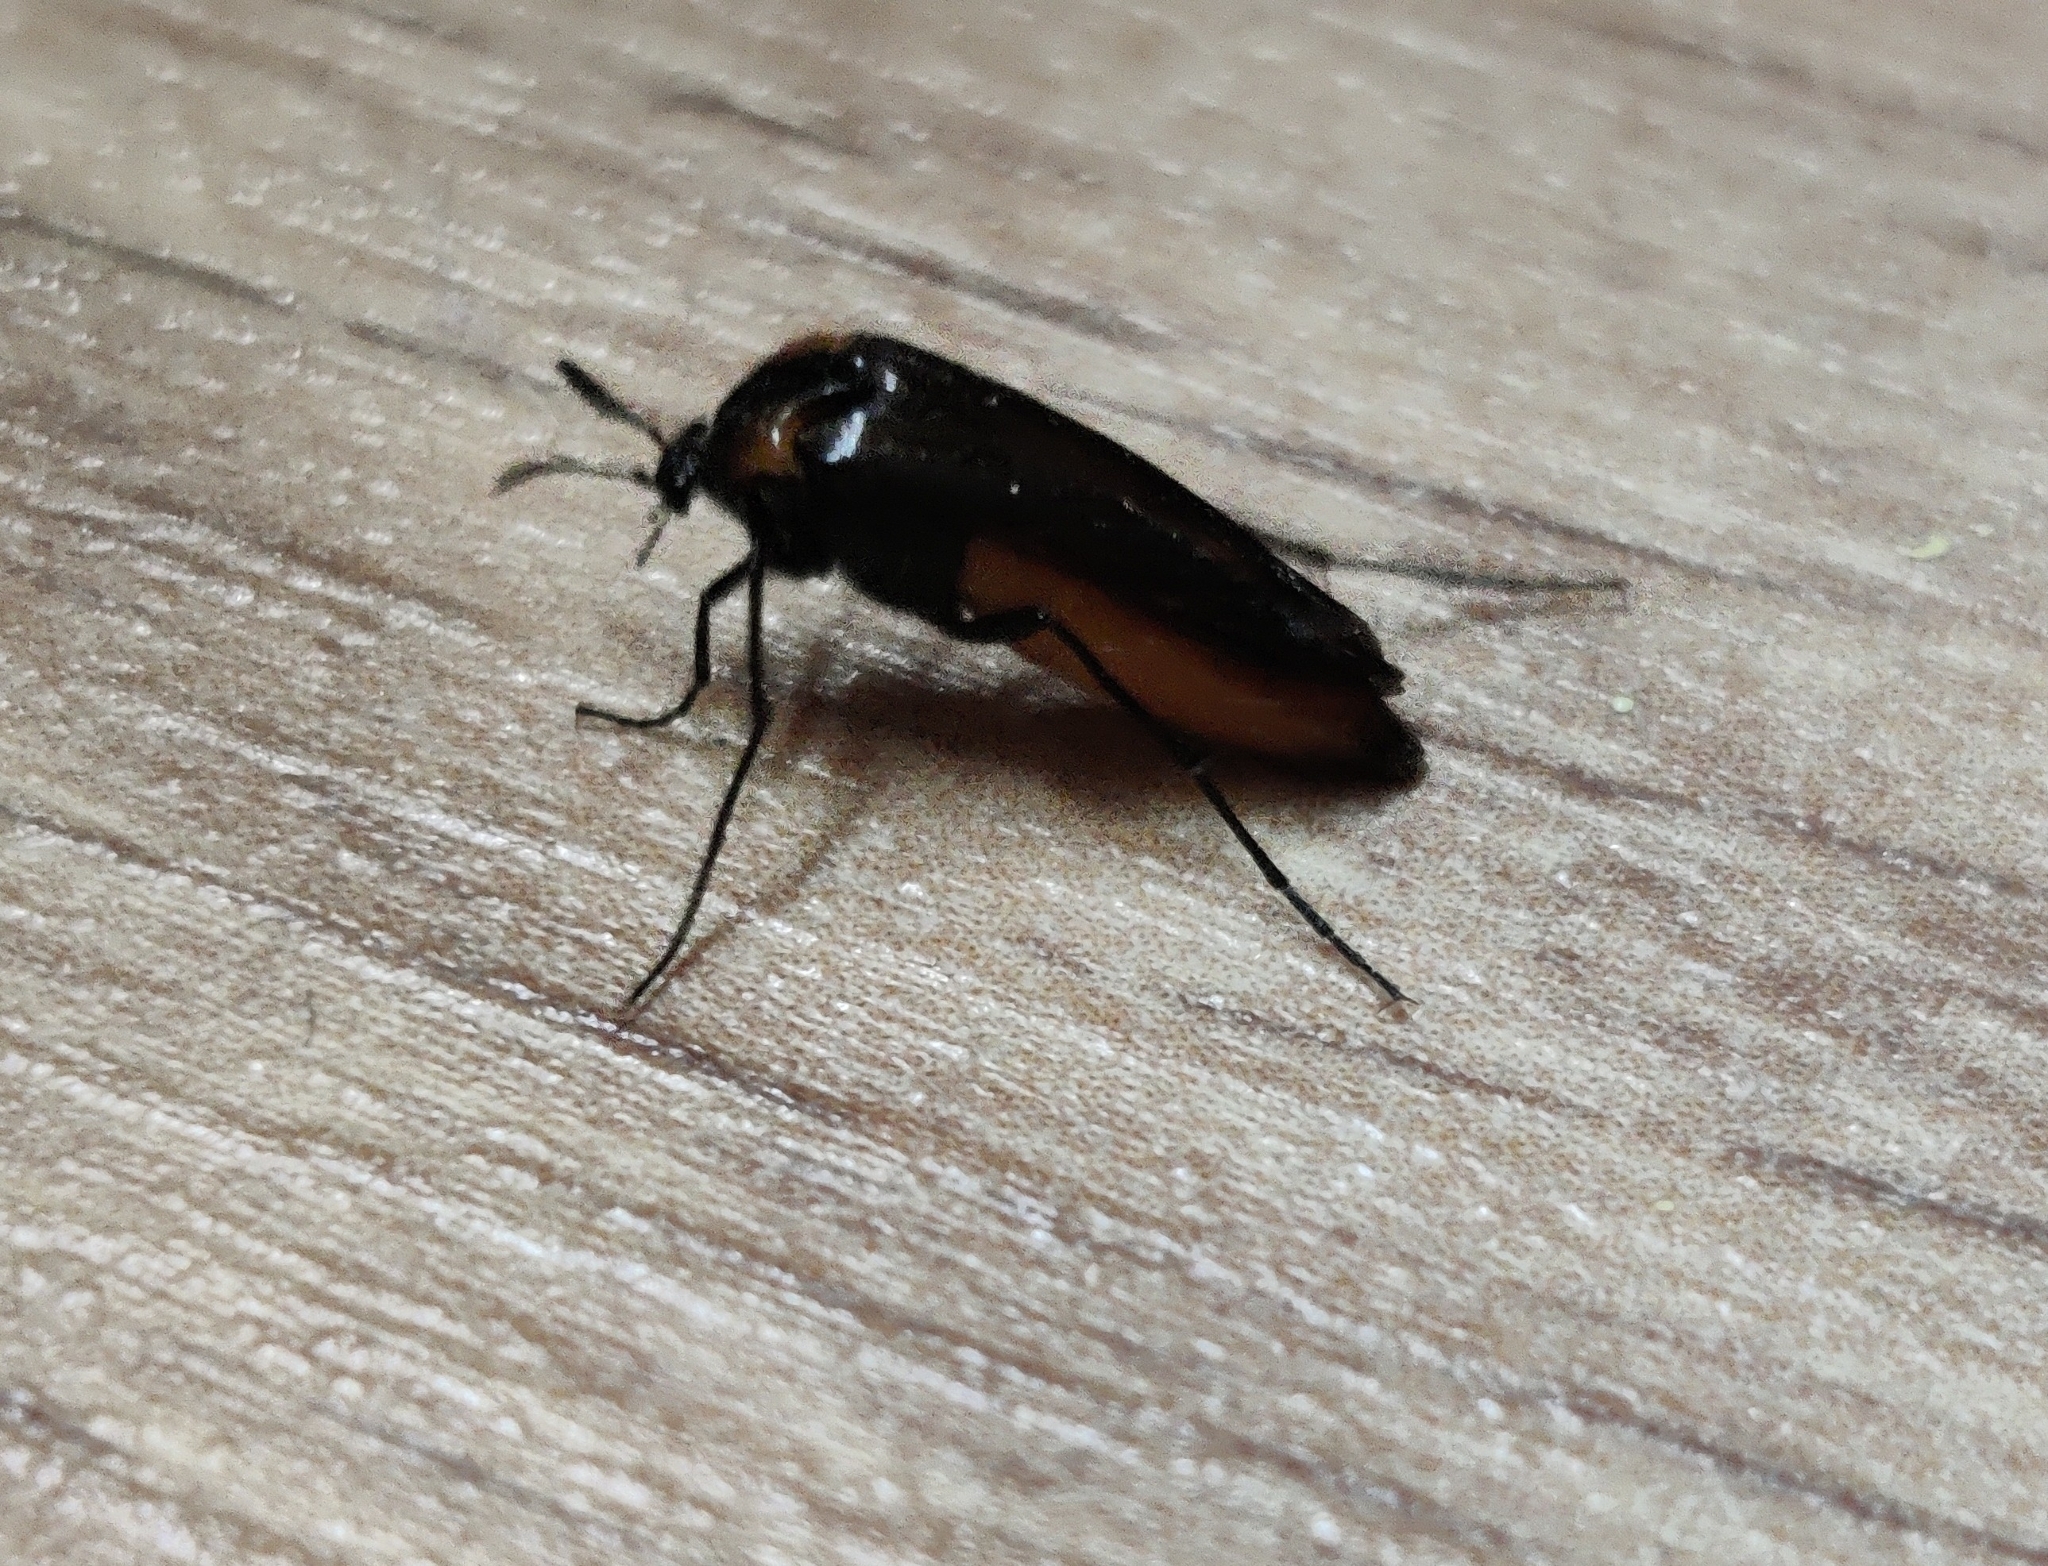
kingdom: Animalia
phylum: Arthropoda
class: Insecta
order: Coleoptera
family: Ripiphoridae
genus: Metoecus
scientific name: Metoecus paradoxus
